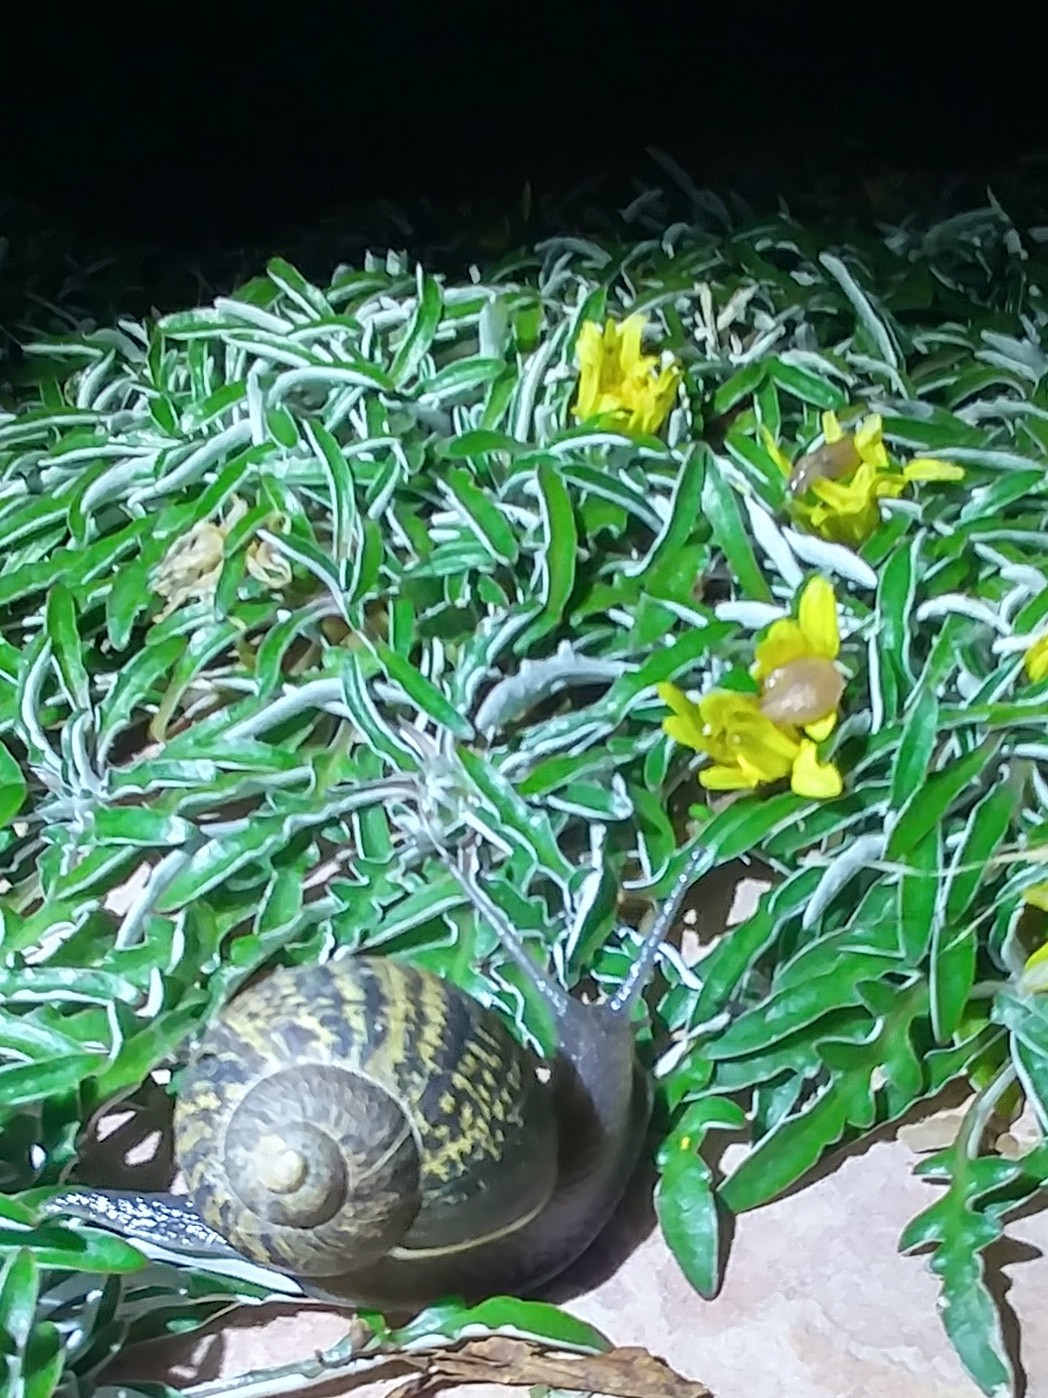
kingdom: Animalia
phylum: Mollusca
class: Gastropoda
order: Stylommatophora
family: Helicidae
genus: Cornu
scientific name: Cornu aspersum
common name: Brown garden snail
